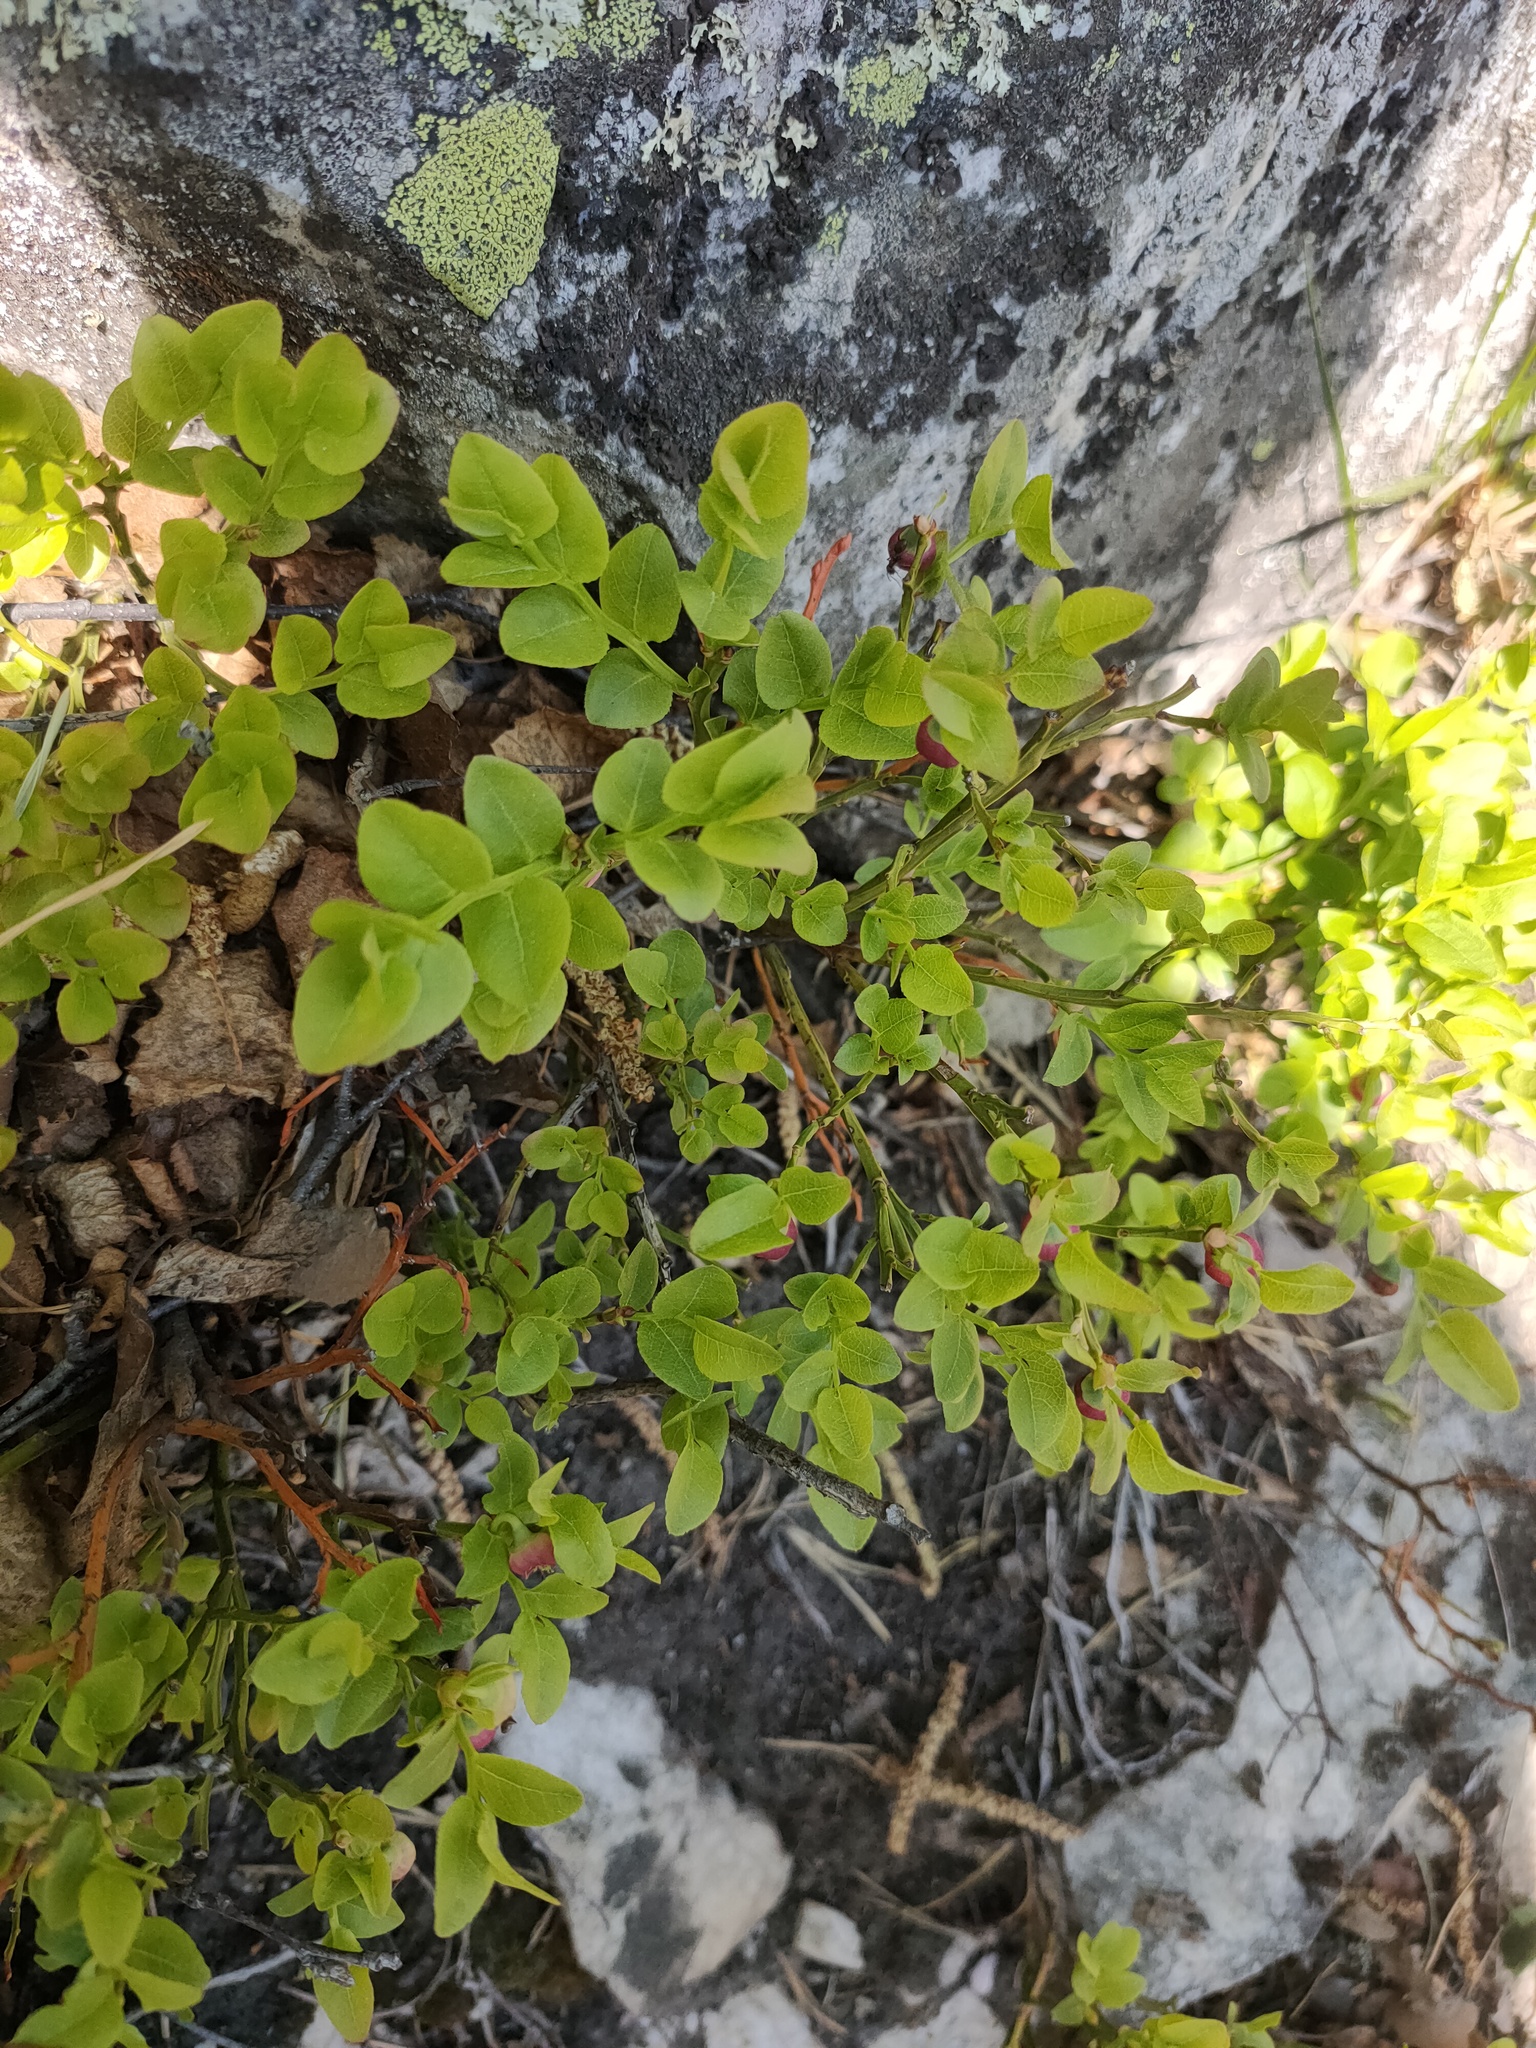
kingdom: Plantae
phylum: Tracheophyta
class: Magnoliopsida
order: Ericales
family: Ericaceae
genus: Vaccinium
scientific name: Vaccinium myrtillus
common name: Bilberry
